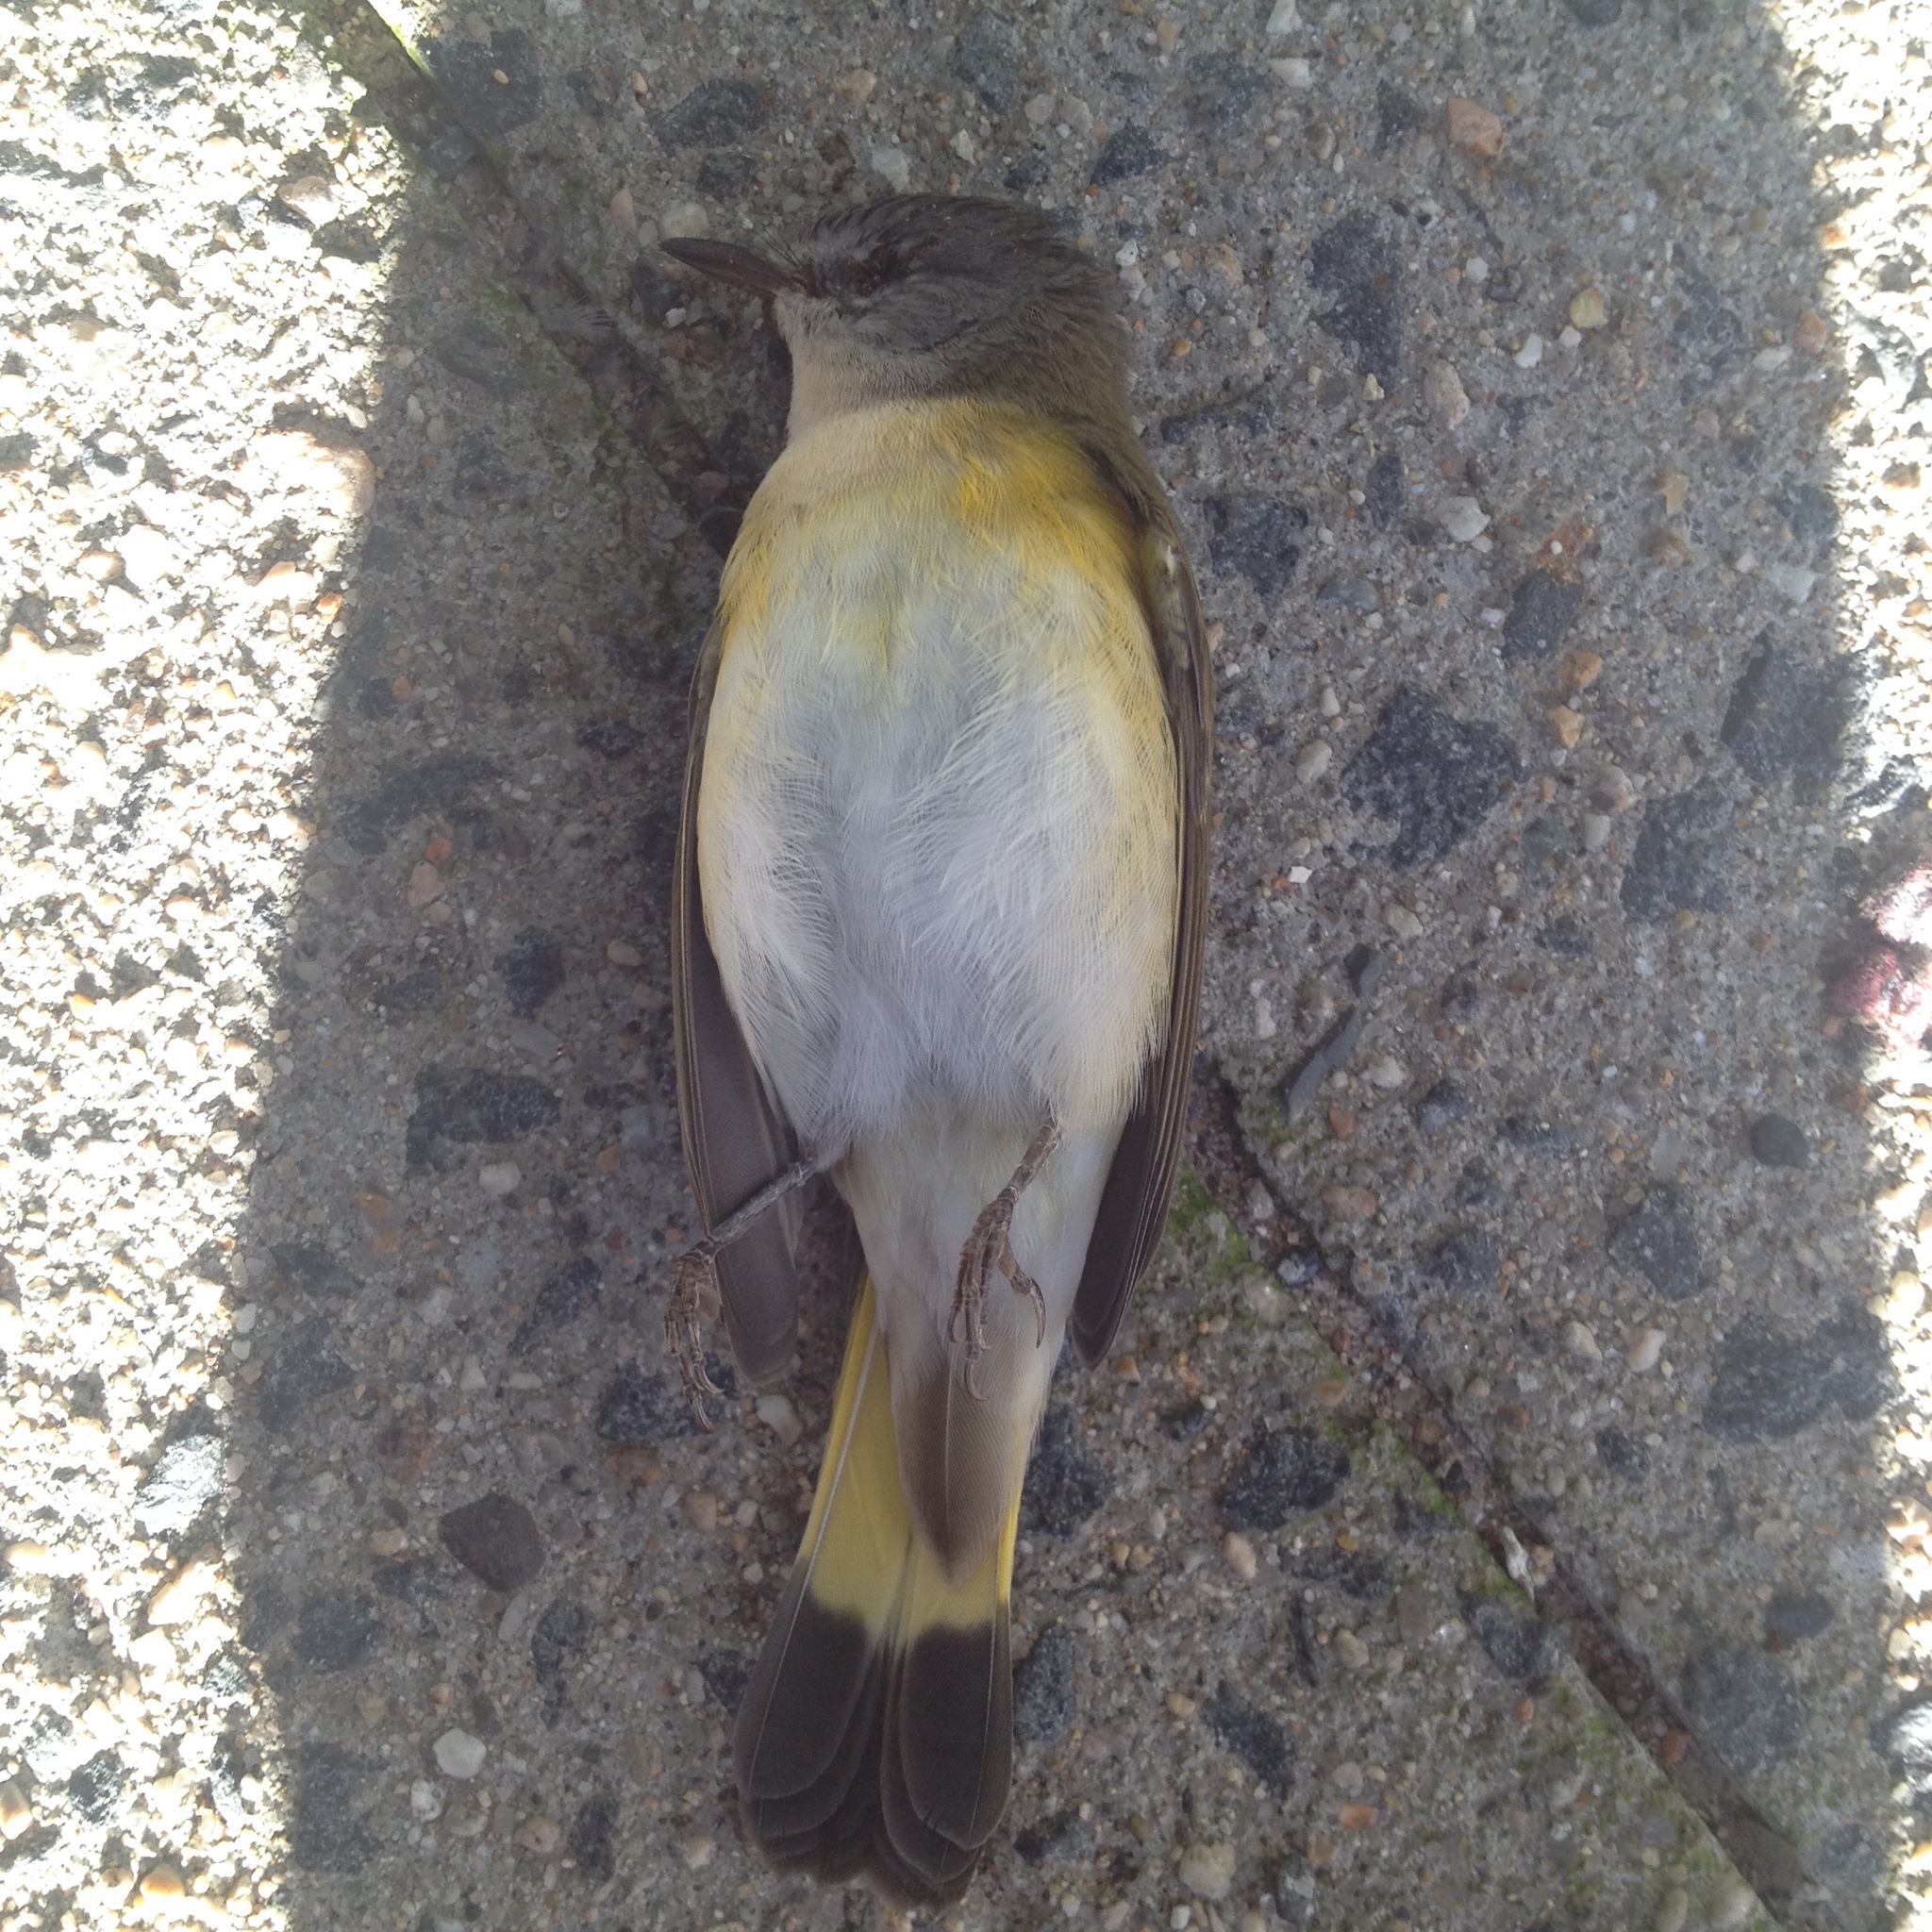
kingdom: Animalia
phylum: Chordata
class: Aves
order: Passeriformes
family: Parulidae
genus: Setophaga
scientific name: Setophaga ruticilla
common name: American redstart
